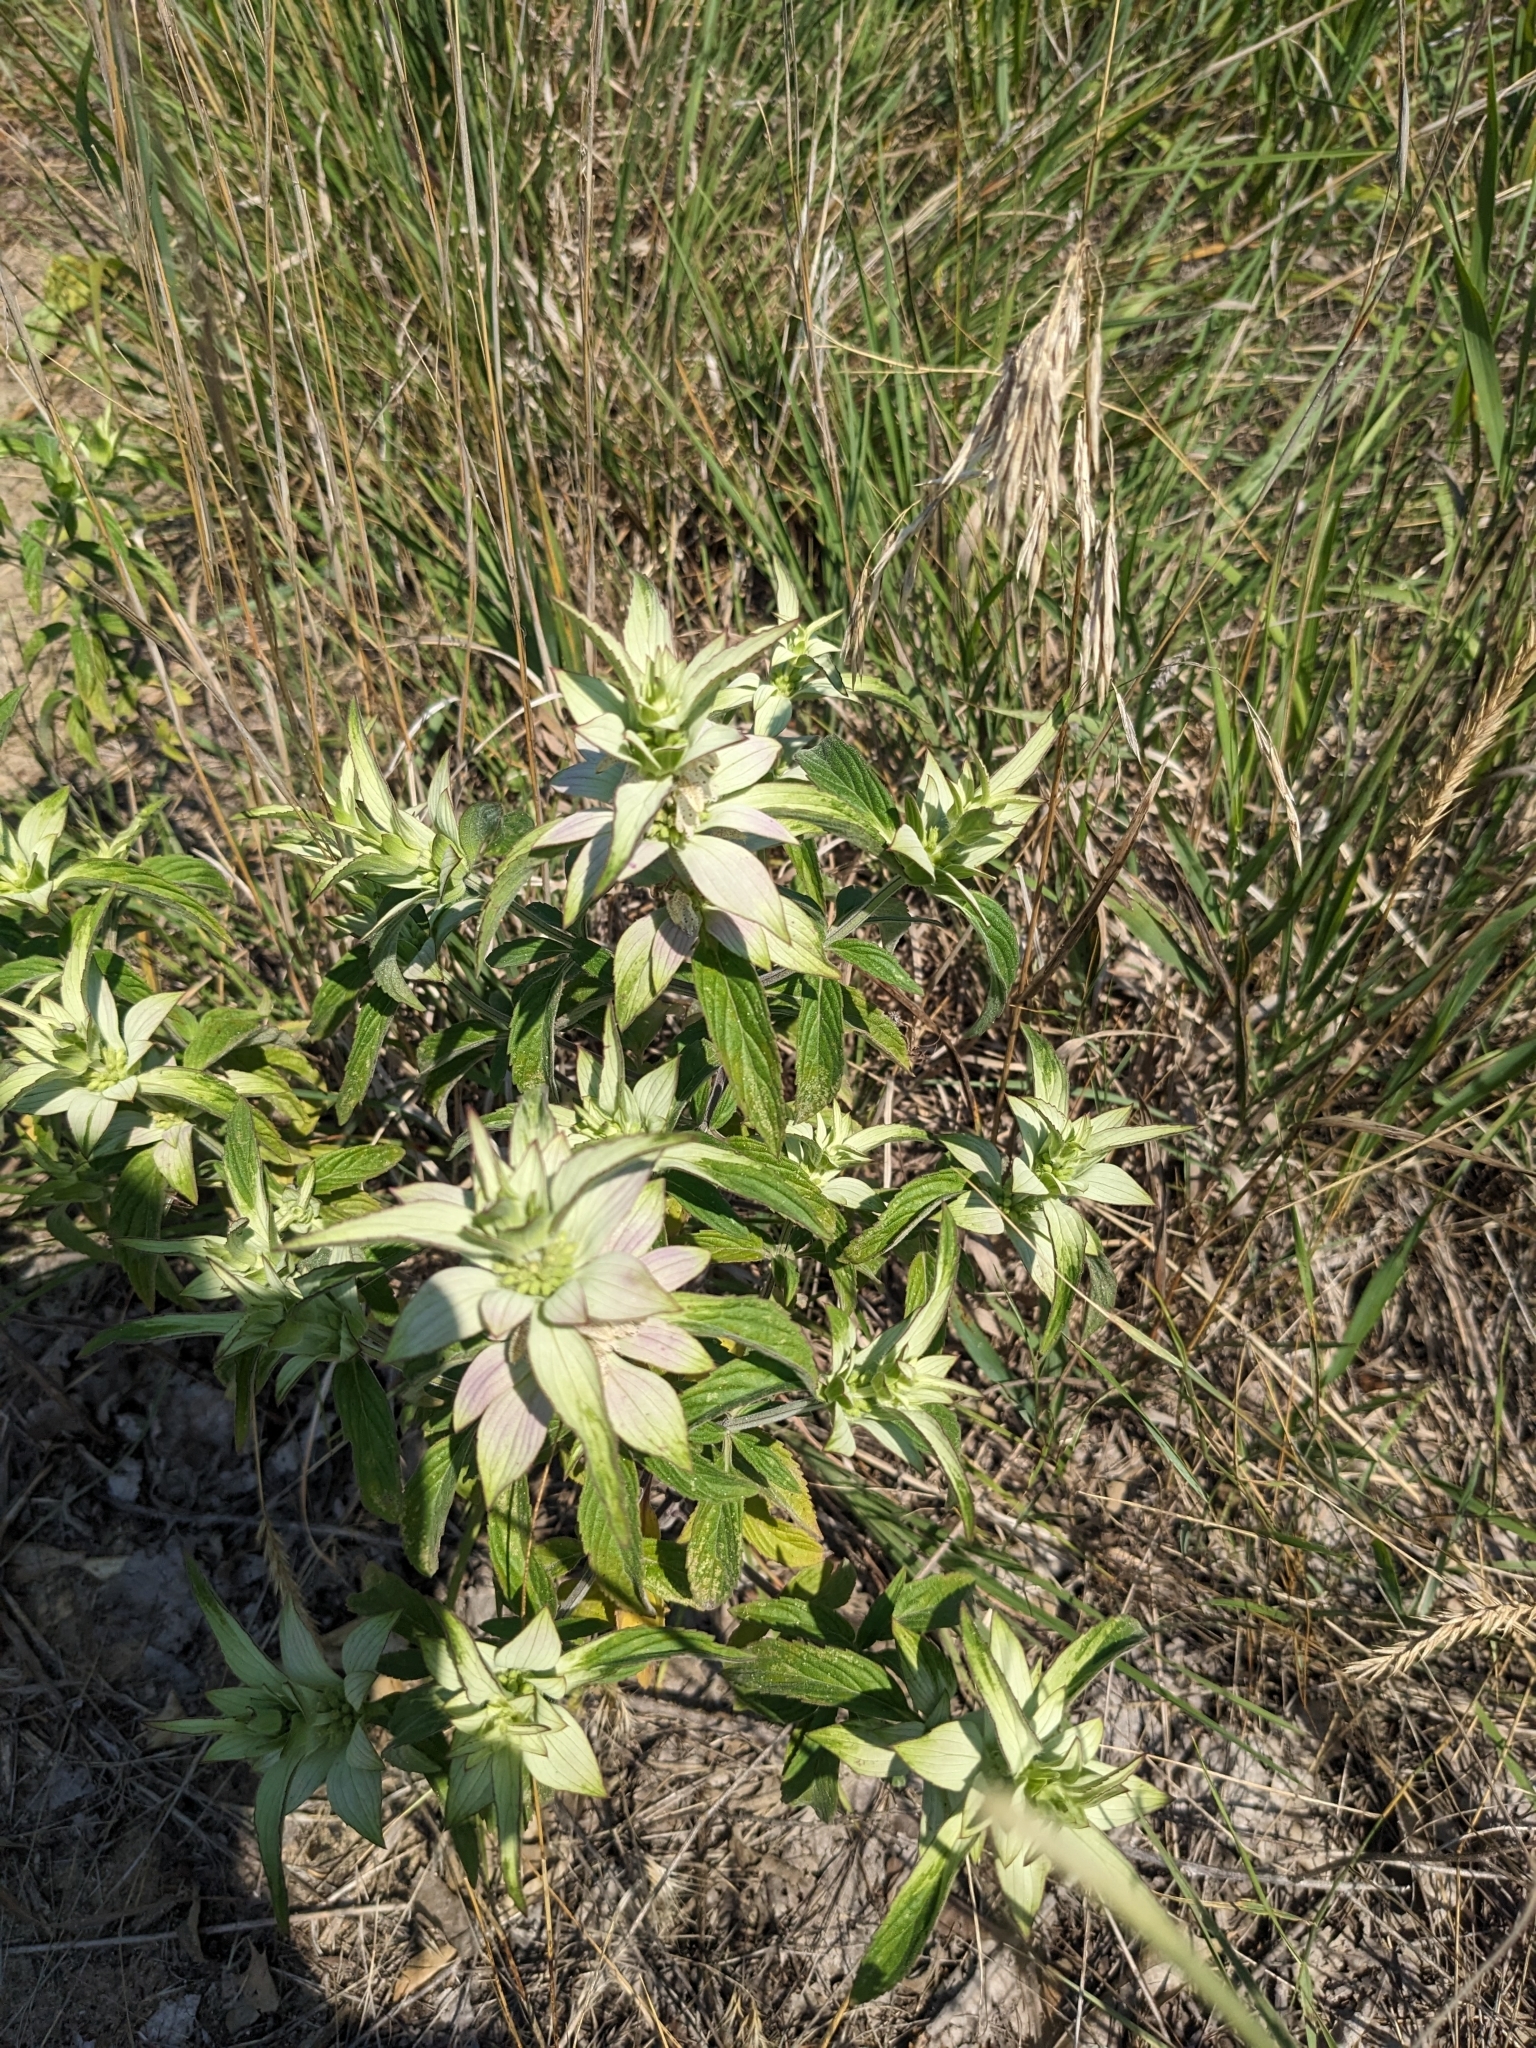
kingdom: Plantae
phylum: Tracheophyta
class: Magnoliopsida
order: Lamiales
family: Lamiaceae
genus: Monarda
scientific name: Monarda punctata
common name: Dotted monarda
